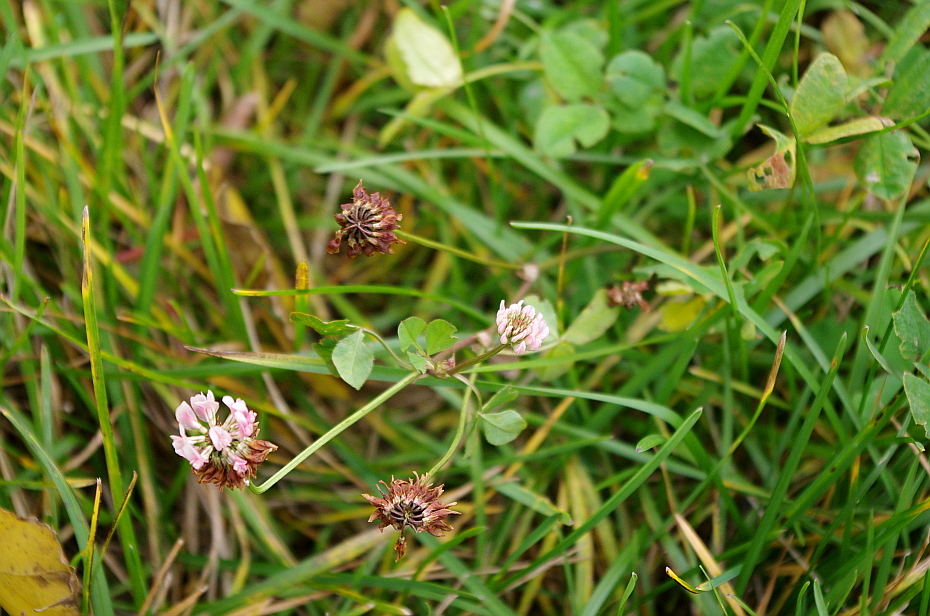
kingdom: Plantae
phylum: Tracheophyta
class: Magnoliopsida
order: Fabales
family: Fabaceae
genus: Trifolium
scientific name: Trifolium hybridum
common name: Alsike clover
